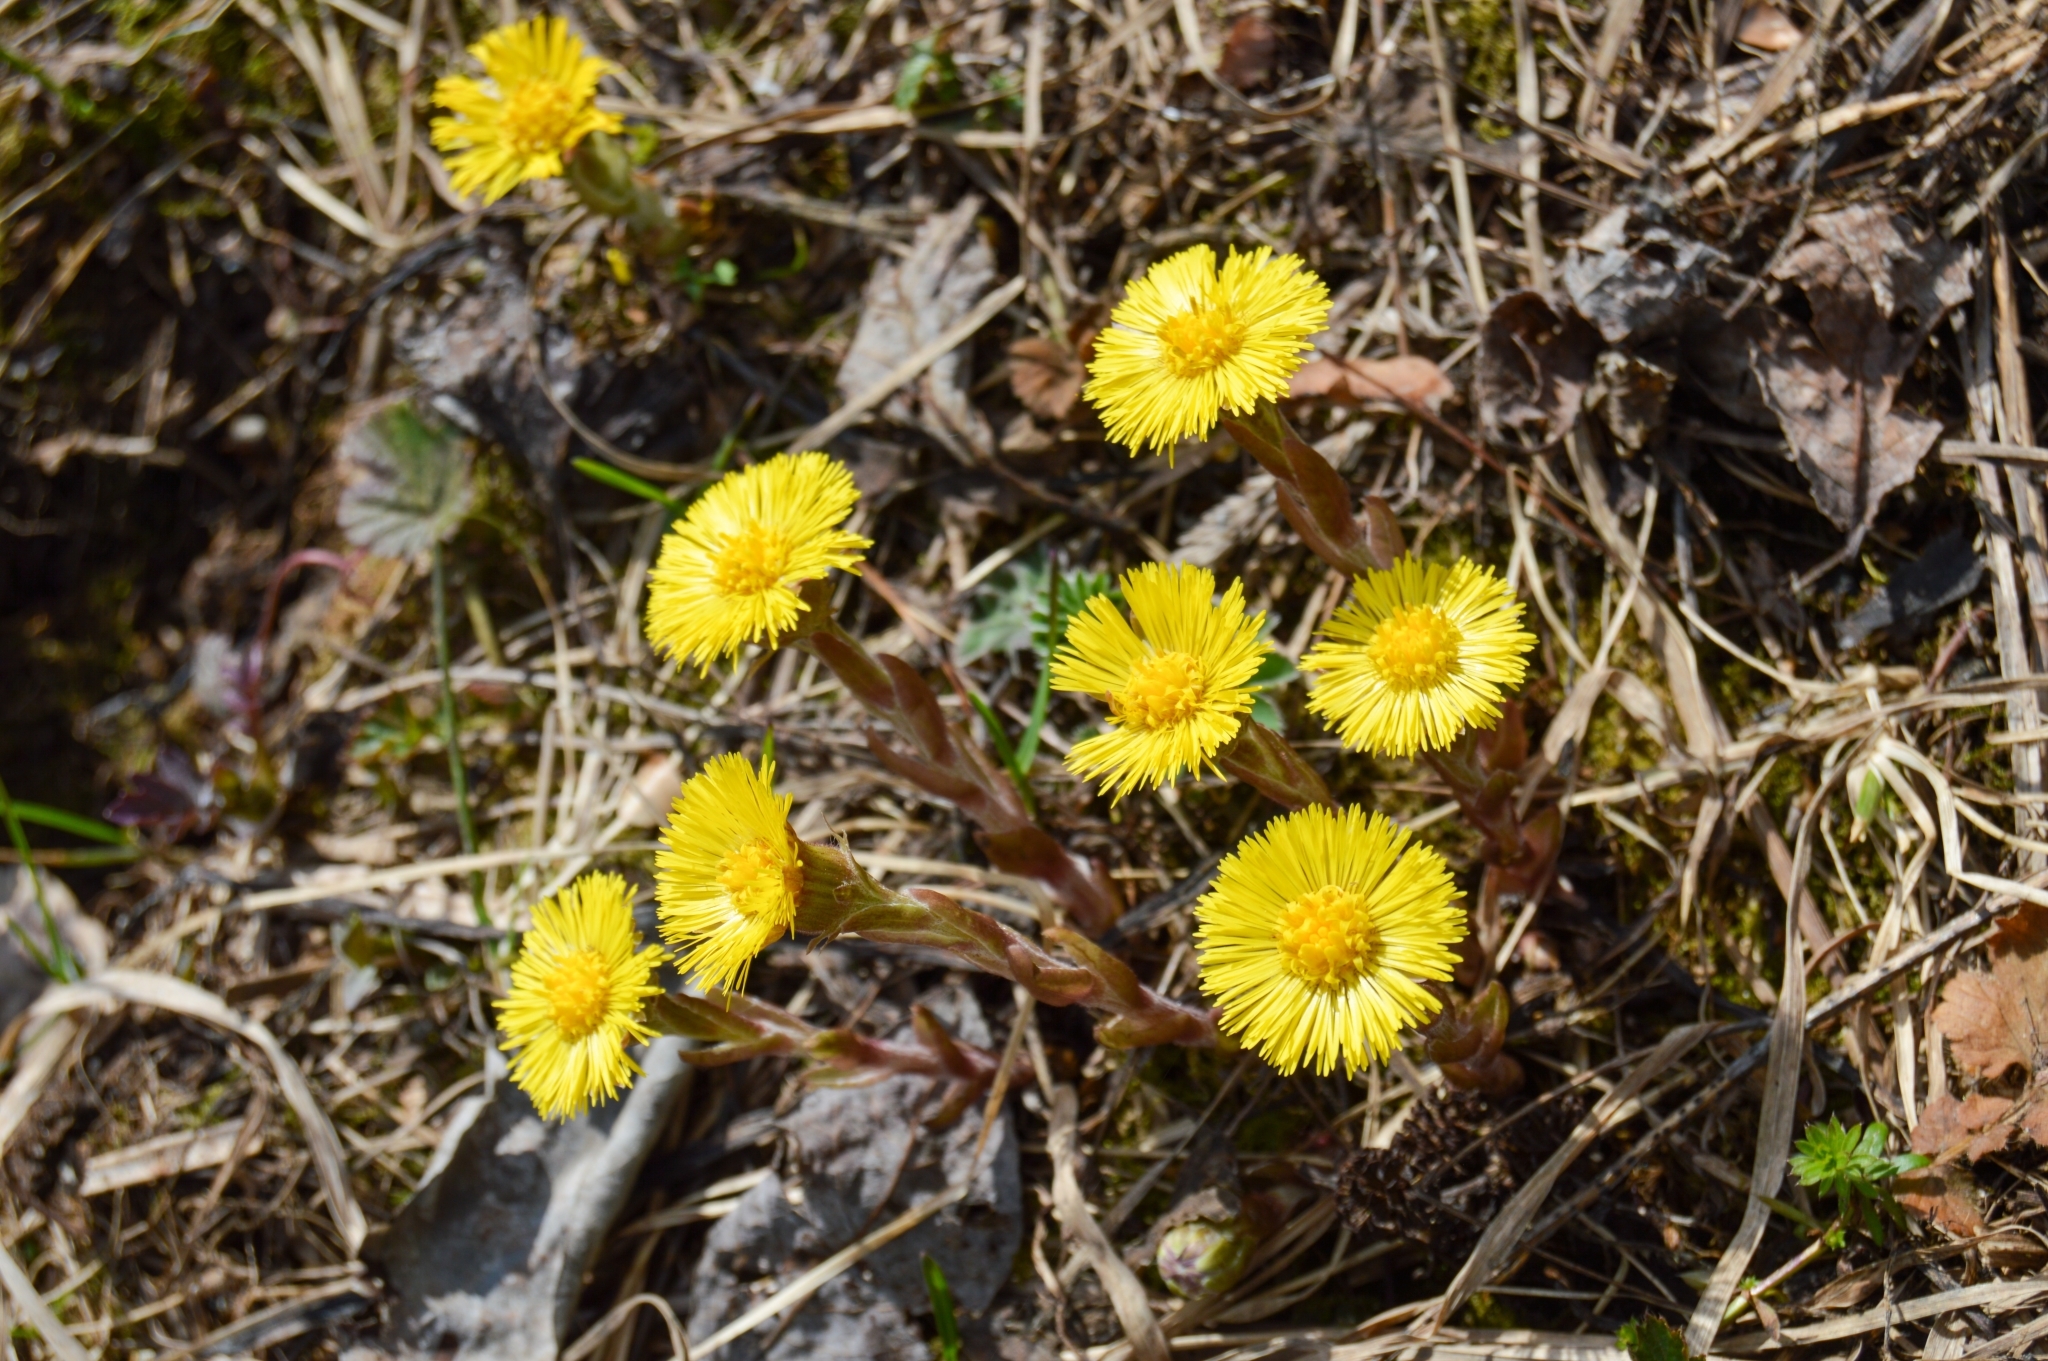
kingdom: Plantae
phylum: Tracheophyta
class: Magnoliopsida
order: Asterales
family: Asteraceae
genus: Tussilago
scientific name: Tussilago farfara
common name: Coltsfoot
